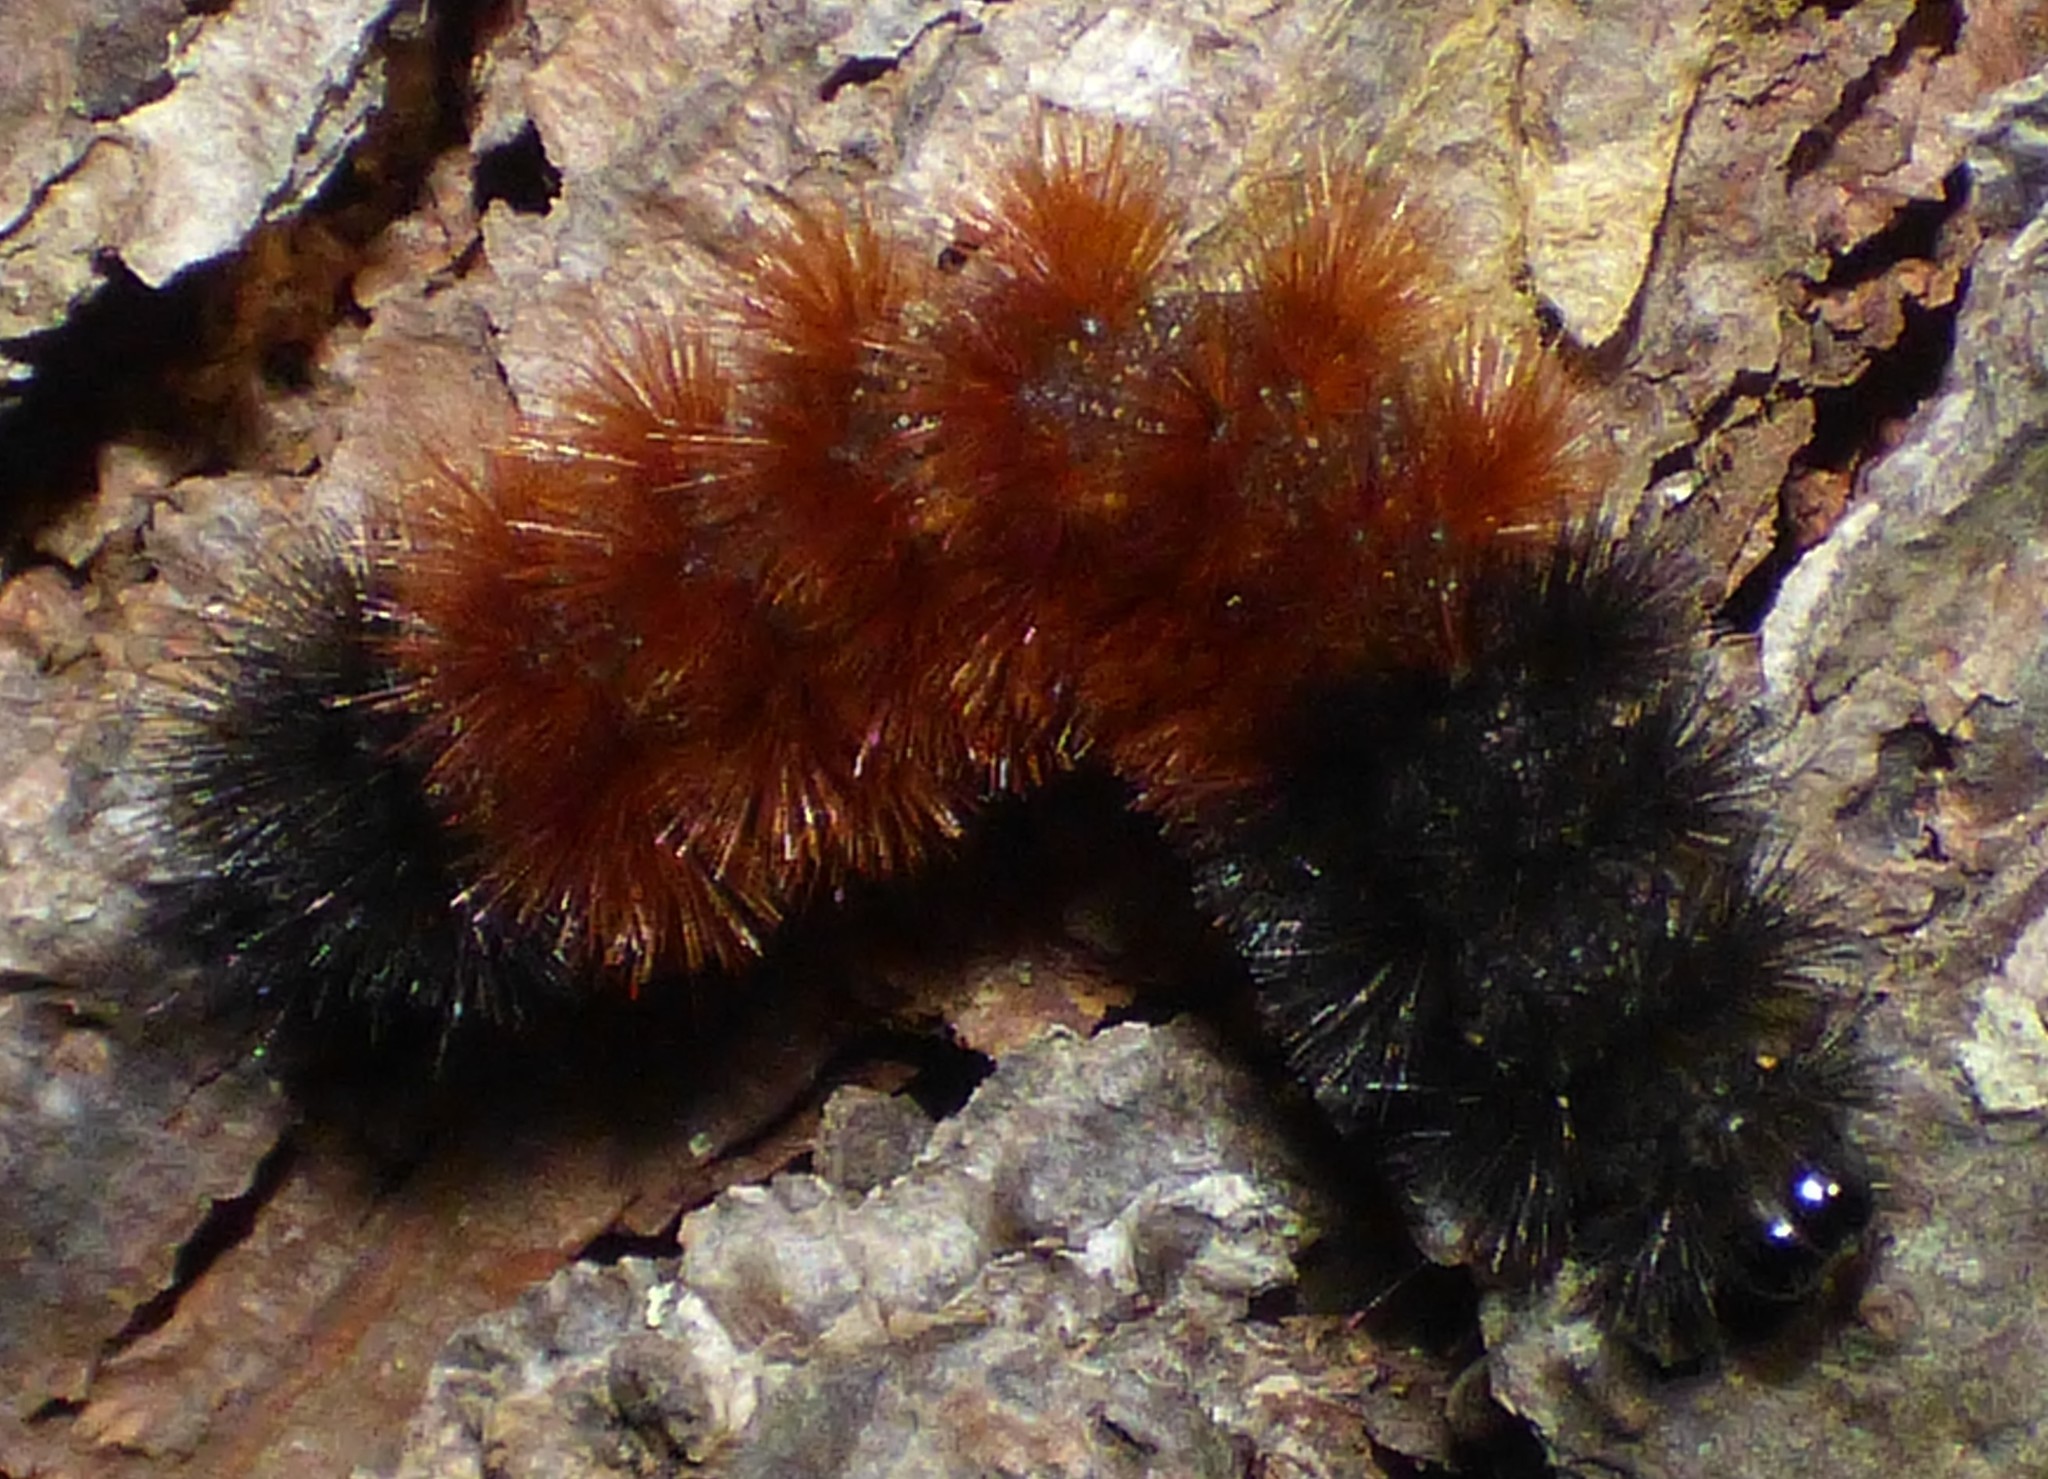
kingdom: Animalia
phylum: Arthropoda
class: Insecta
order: Lepidoptera
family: Erebidae
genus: Pyrrharctia
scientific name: Pyrrharctia isabella
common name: Isabella tiger moth
